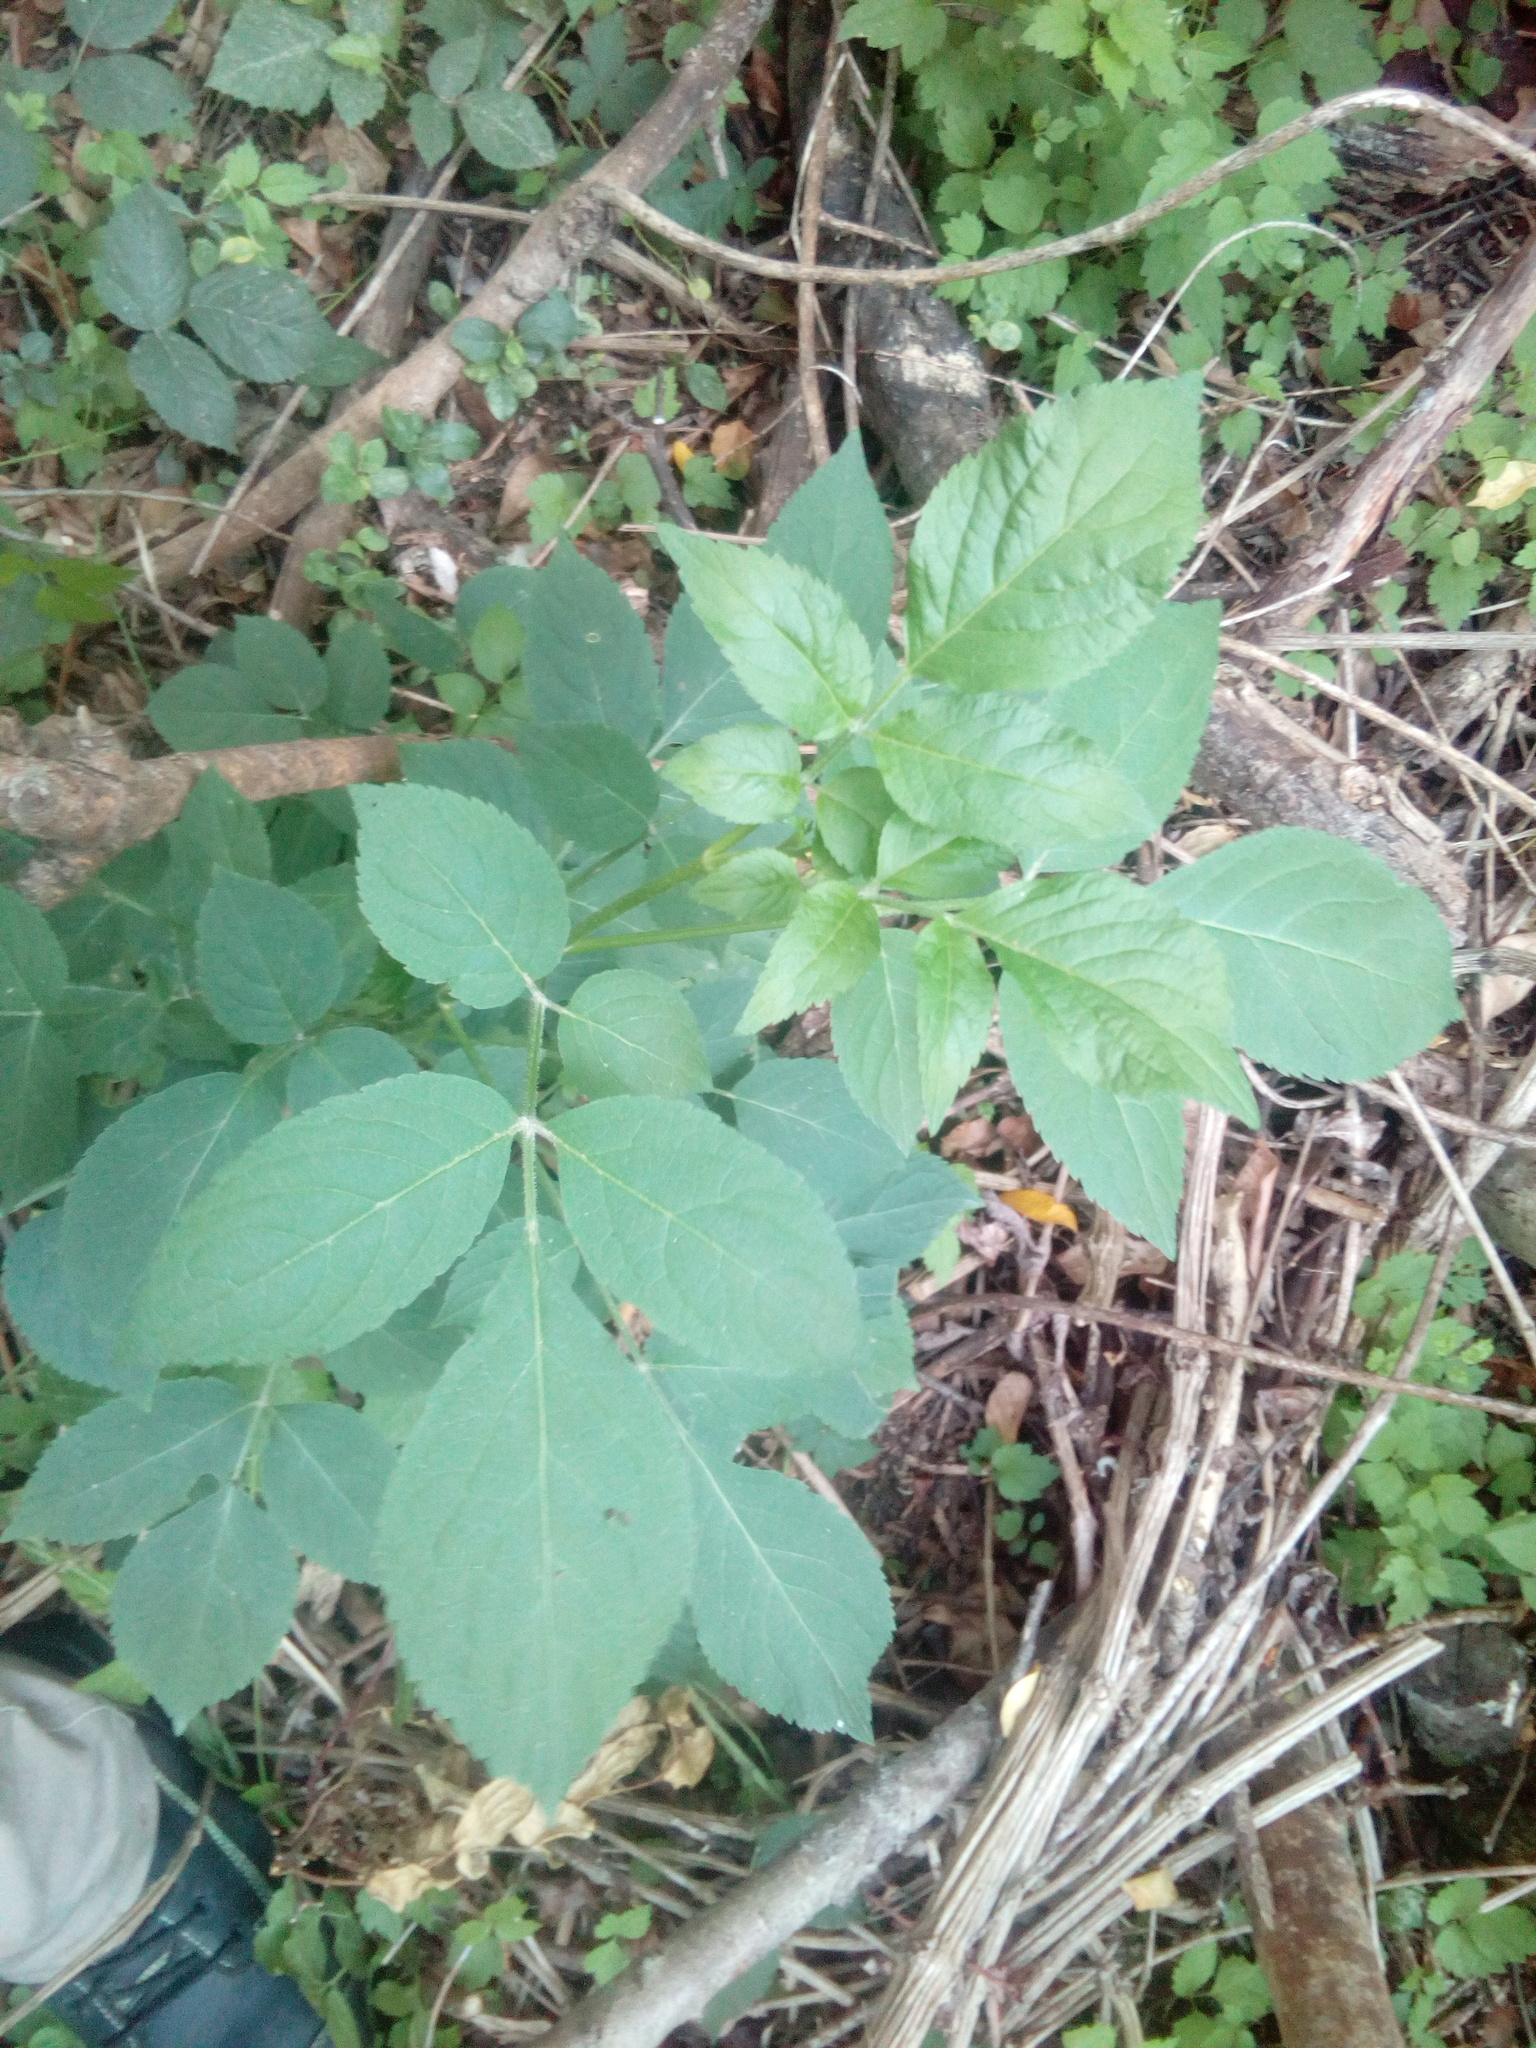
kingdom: Plantae
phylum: Tracheophyta
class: Magnoliopsida
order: Dipsacales
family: Viburnaceae
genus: Sambucus
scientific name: Sambucus nigra
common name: Elder
